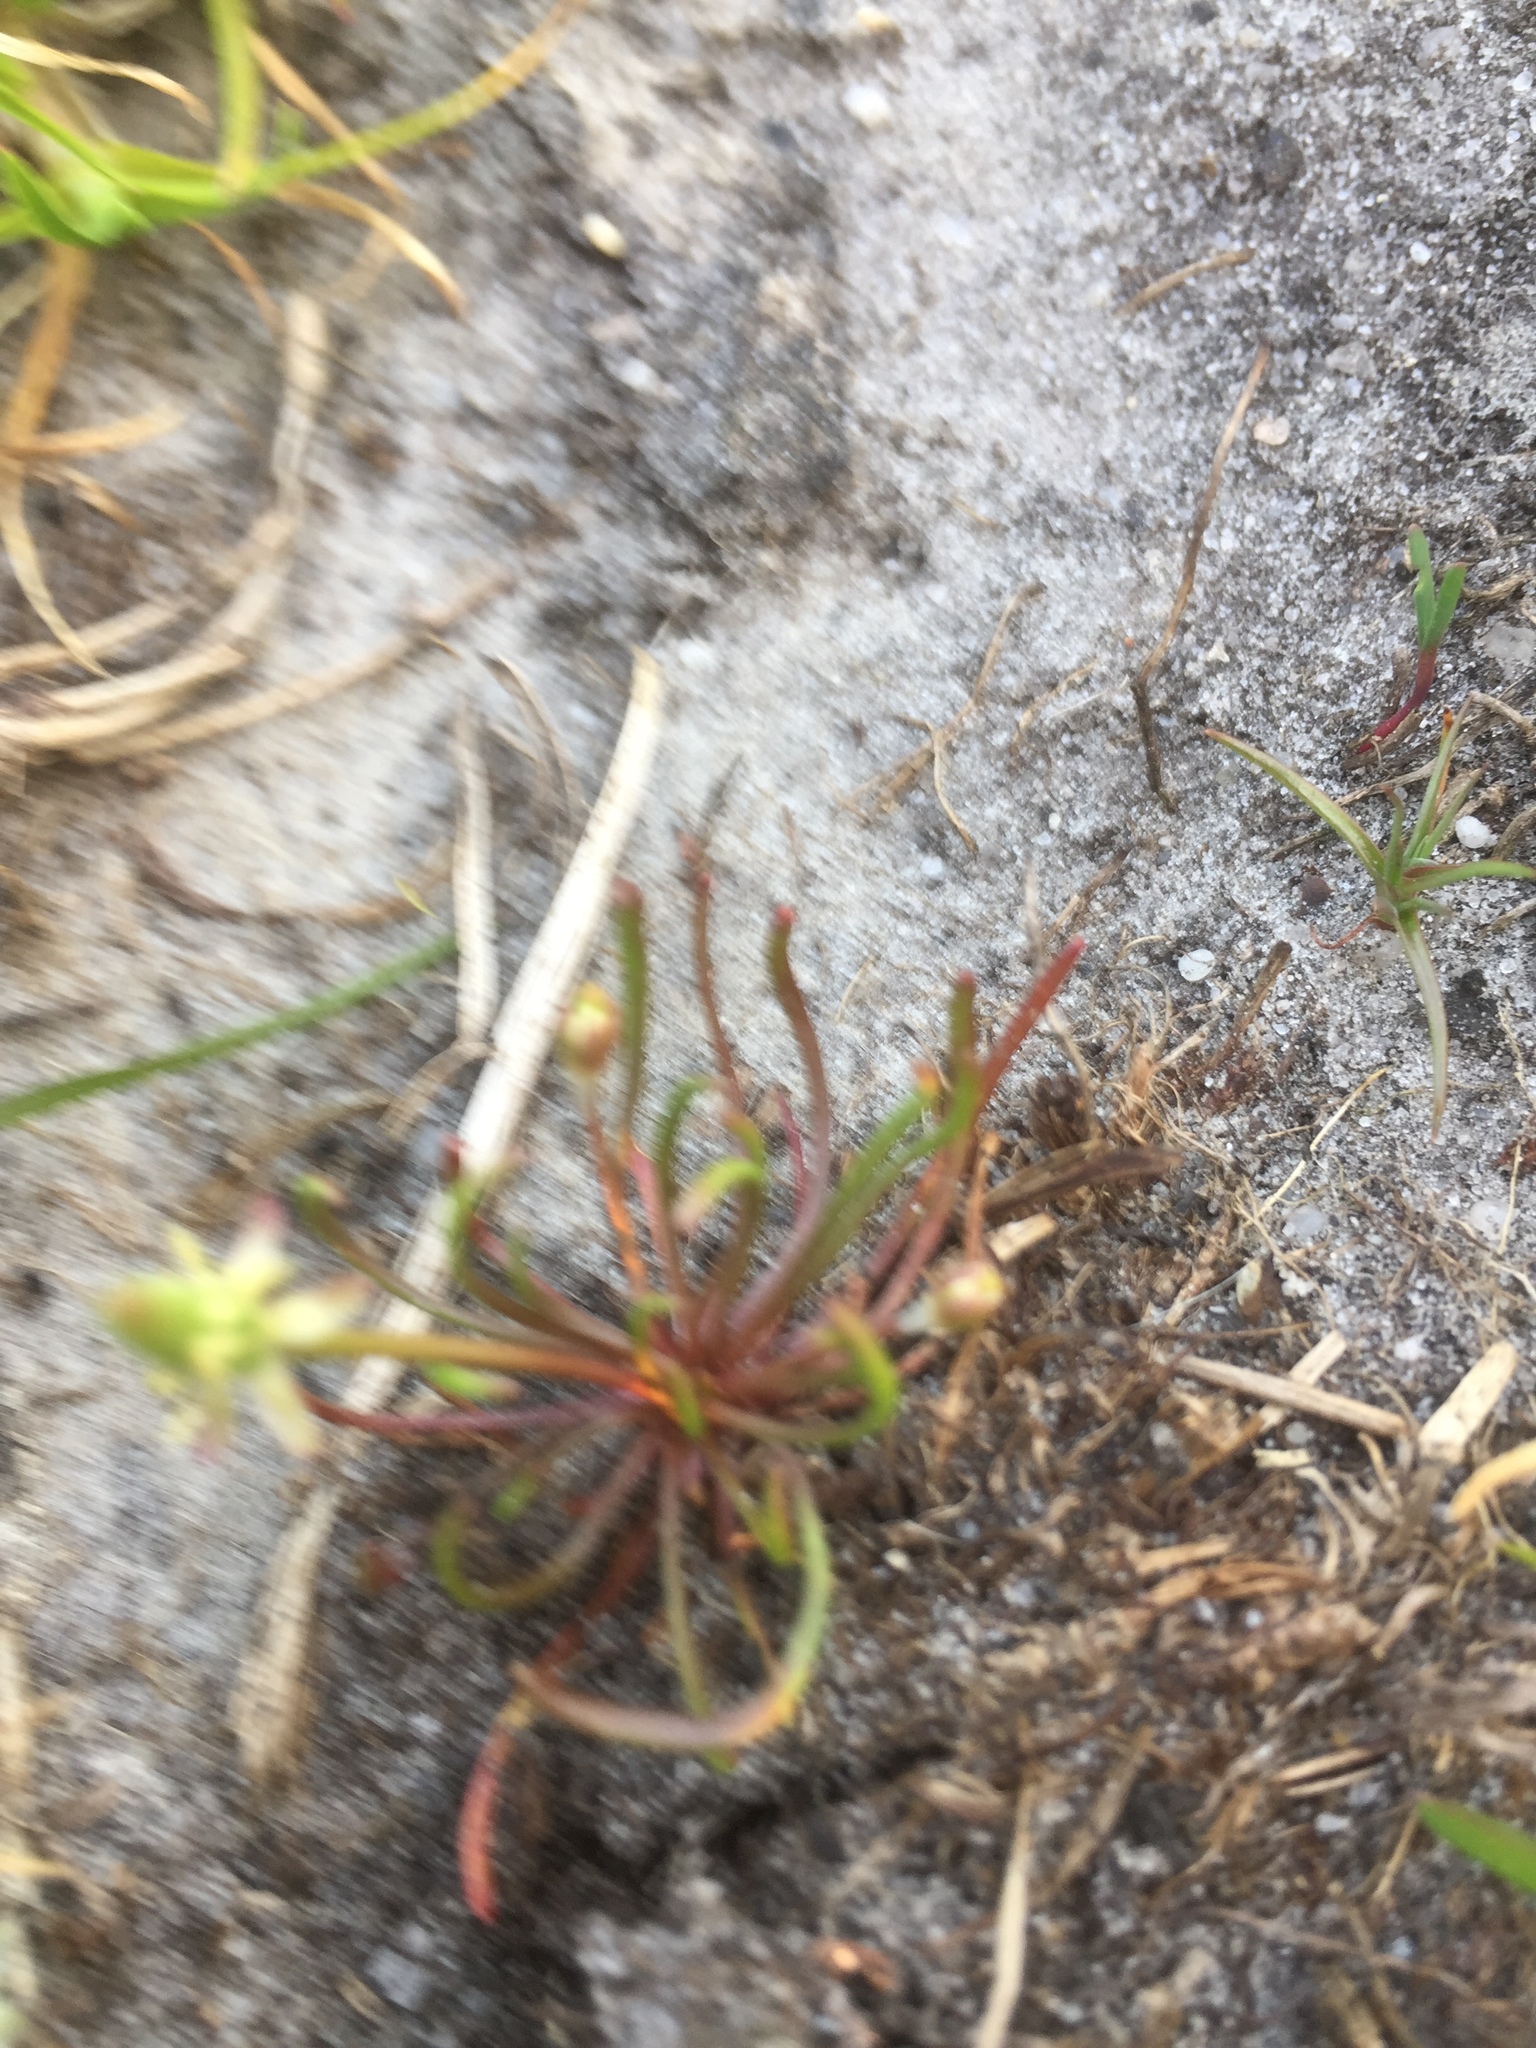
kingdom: Plantae
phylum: Tracheophyta
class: Magnoliopsida
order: Ranunculales
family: Ranunculaceae
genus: Myosurus
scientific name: Myosurus minimus
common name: Mousetail
